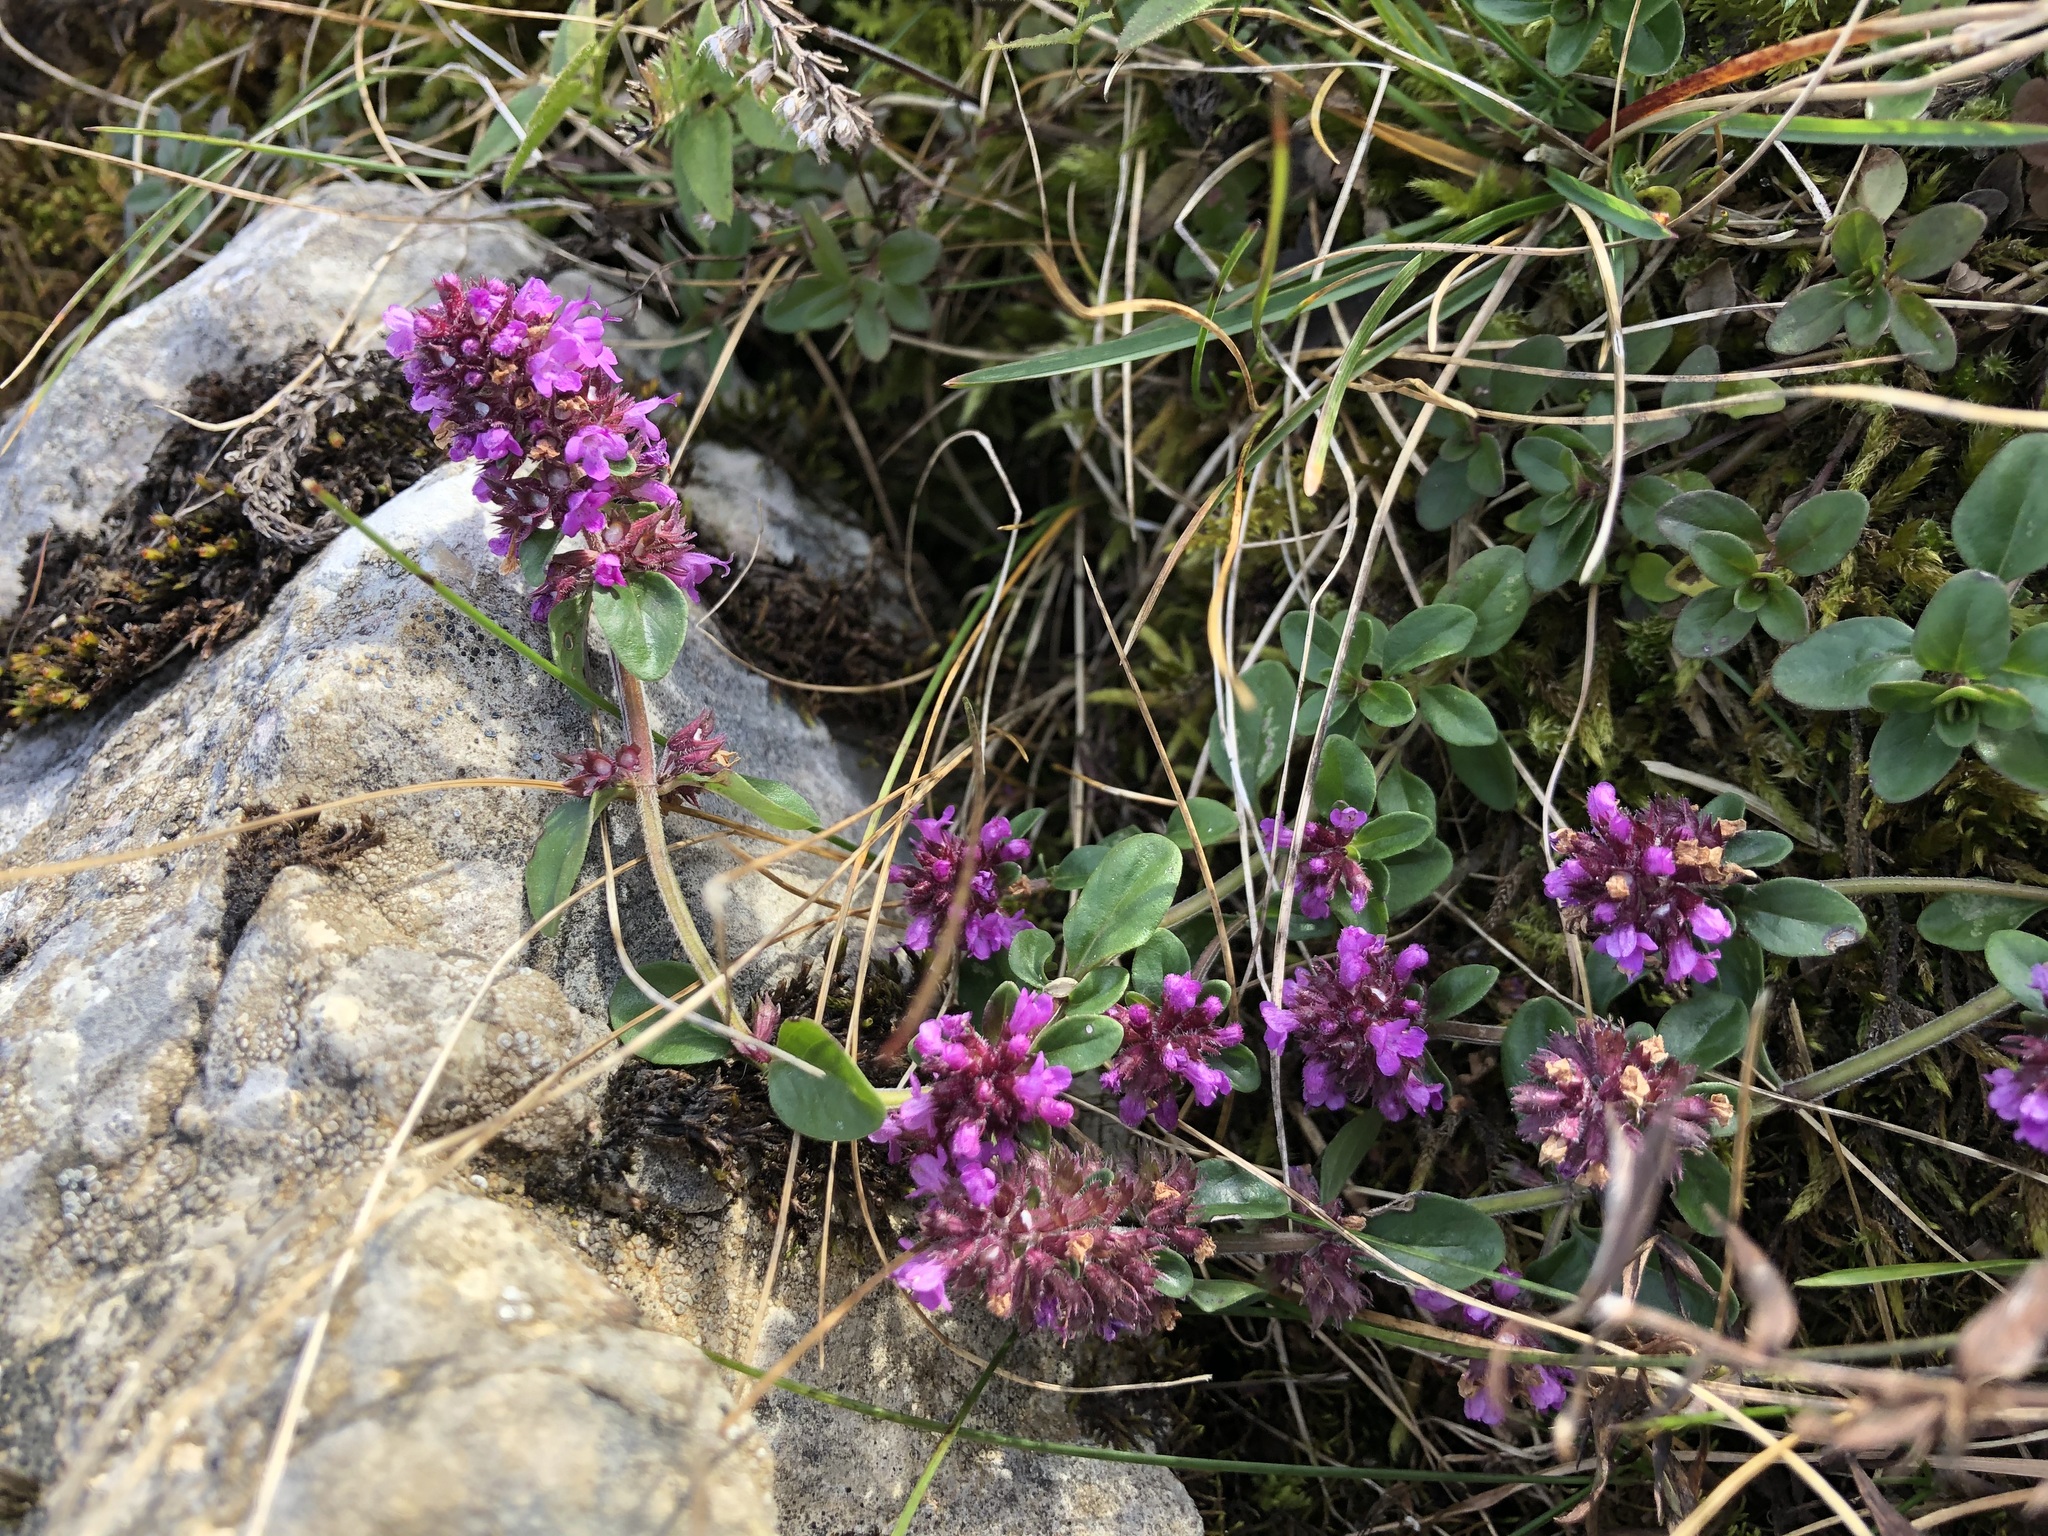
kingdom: Plantae
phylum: Tracheophyta
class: Magnoliopsida
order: Lamiales
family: Lamiaceae
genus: Thymus
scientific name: Thymus pulegioides
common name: Large thyme
